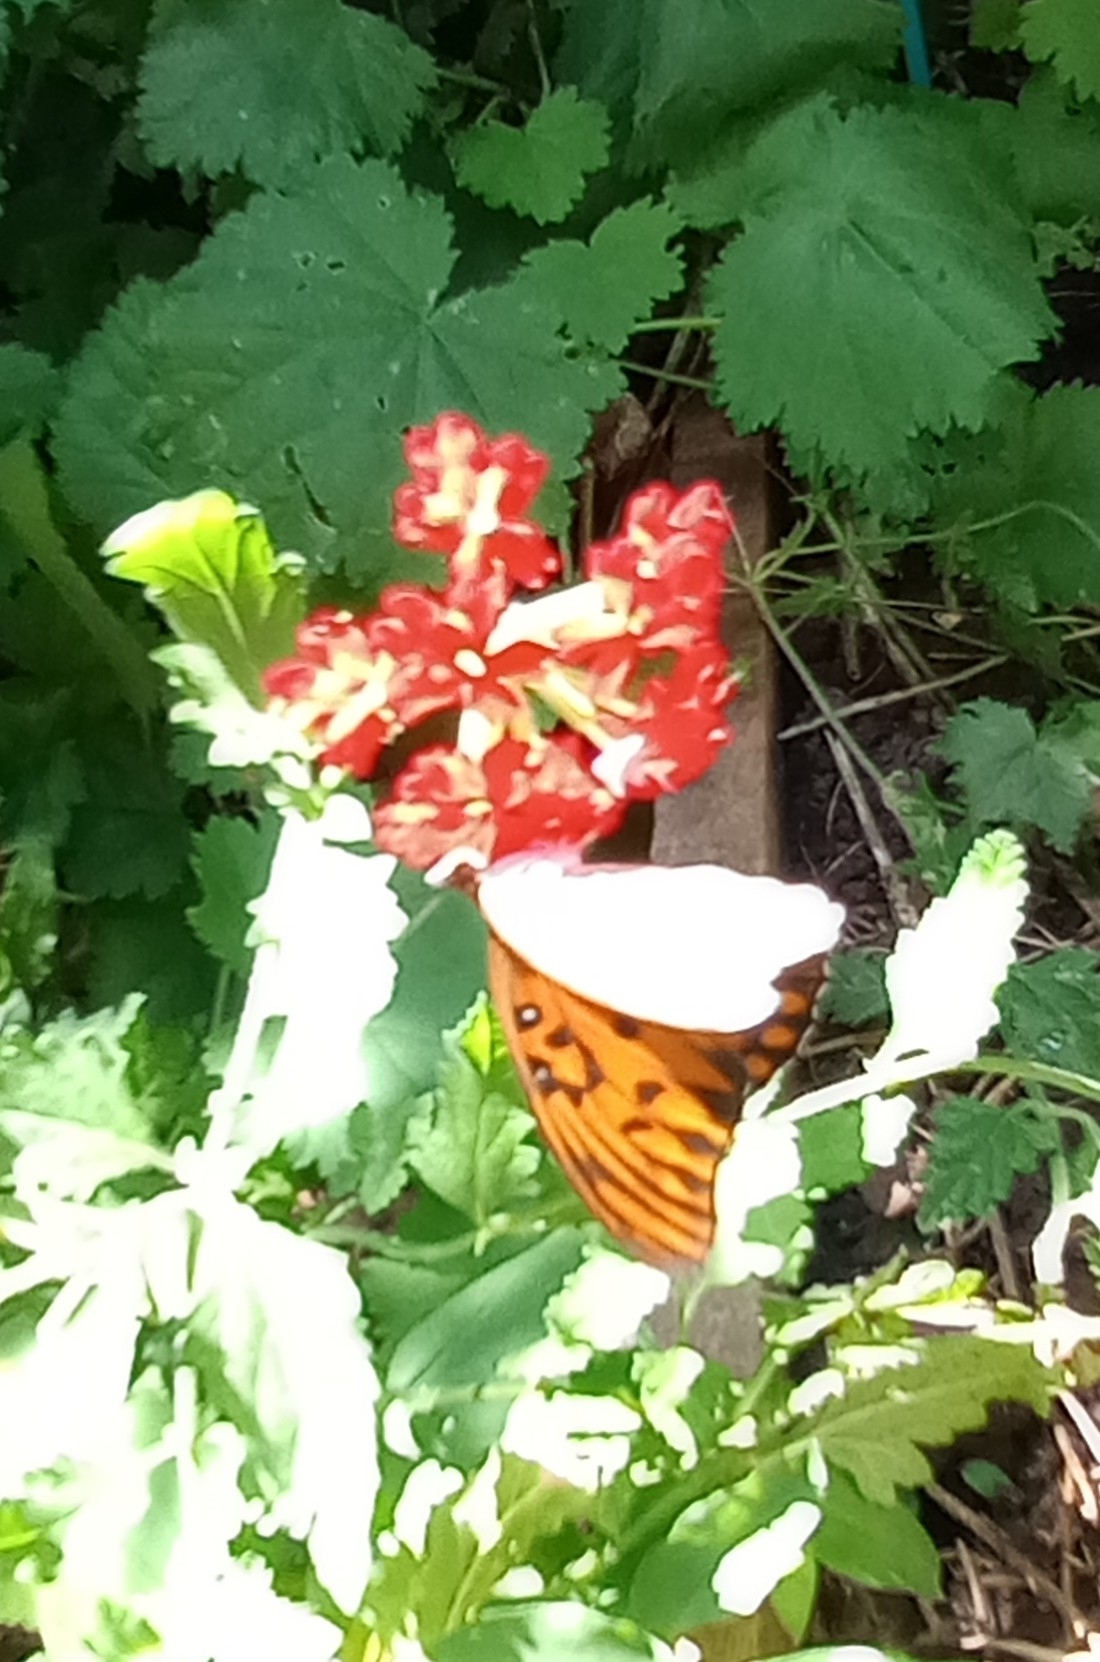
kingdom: Animalia
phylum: Arthropoda
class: Insecta
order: Lepidoptera
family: Nymphalidae
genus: Dione
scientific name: Dione vanillae
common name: Gulf fritillary
